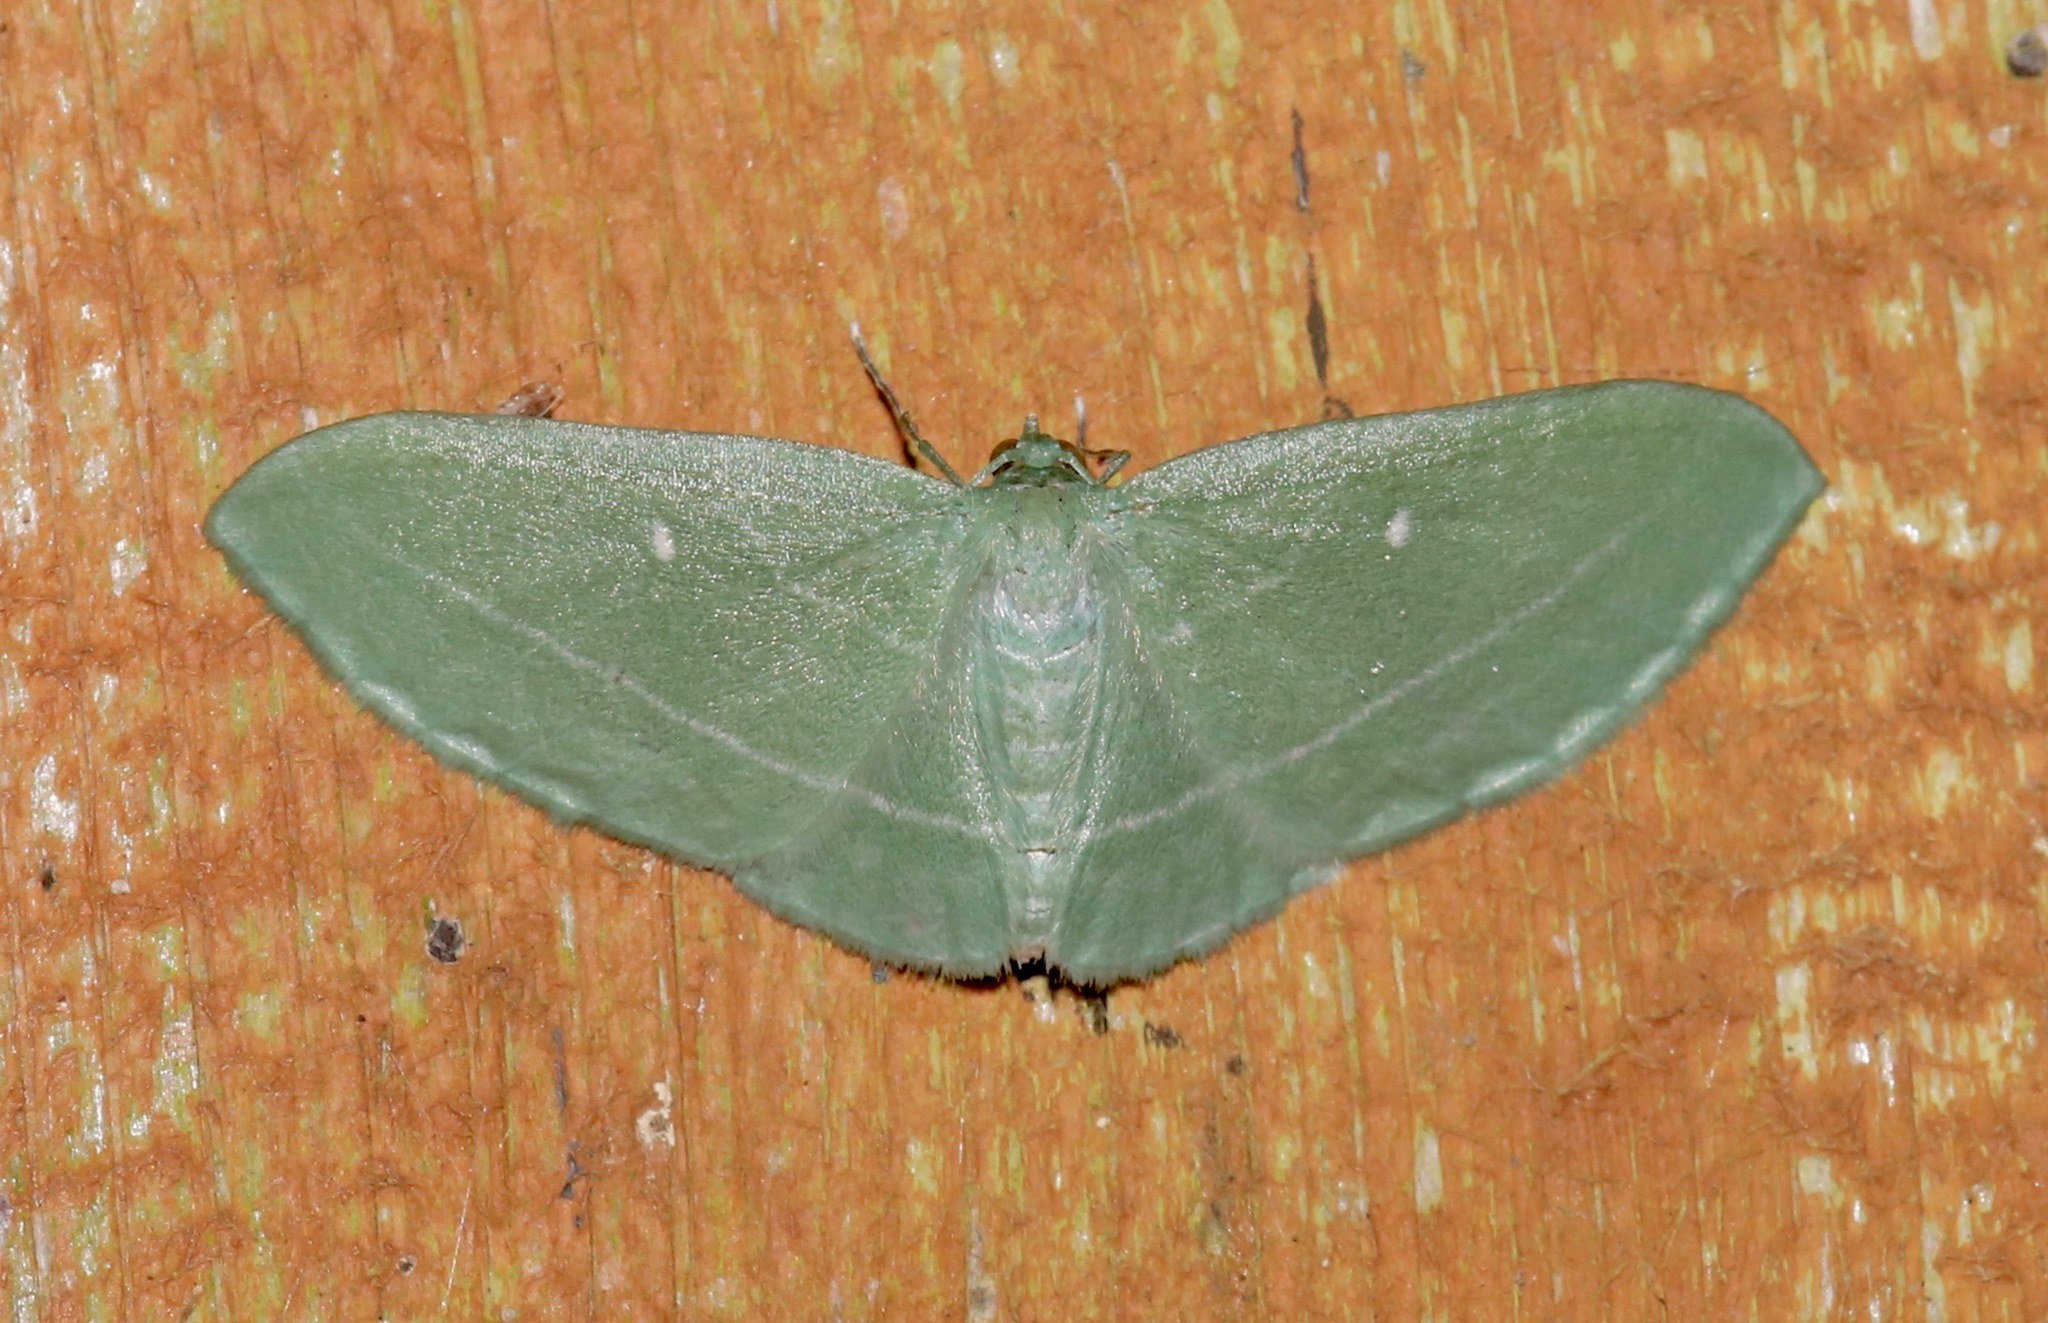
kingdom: Animalia
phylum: Arthropoda
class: Insecta
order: Lepidoptera
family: Geometridae
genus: Dyspteris
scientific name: Dyspteris abortivaria
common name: Bad-wing
